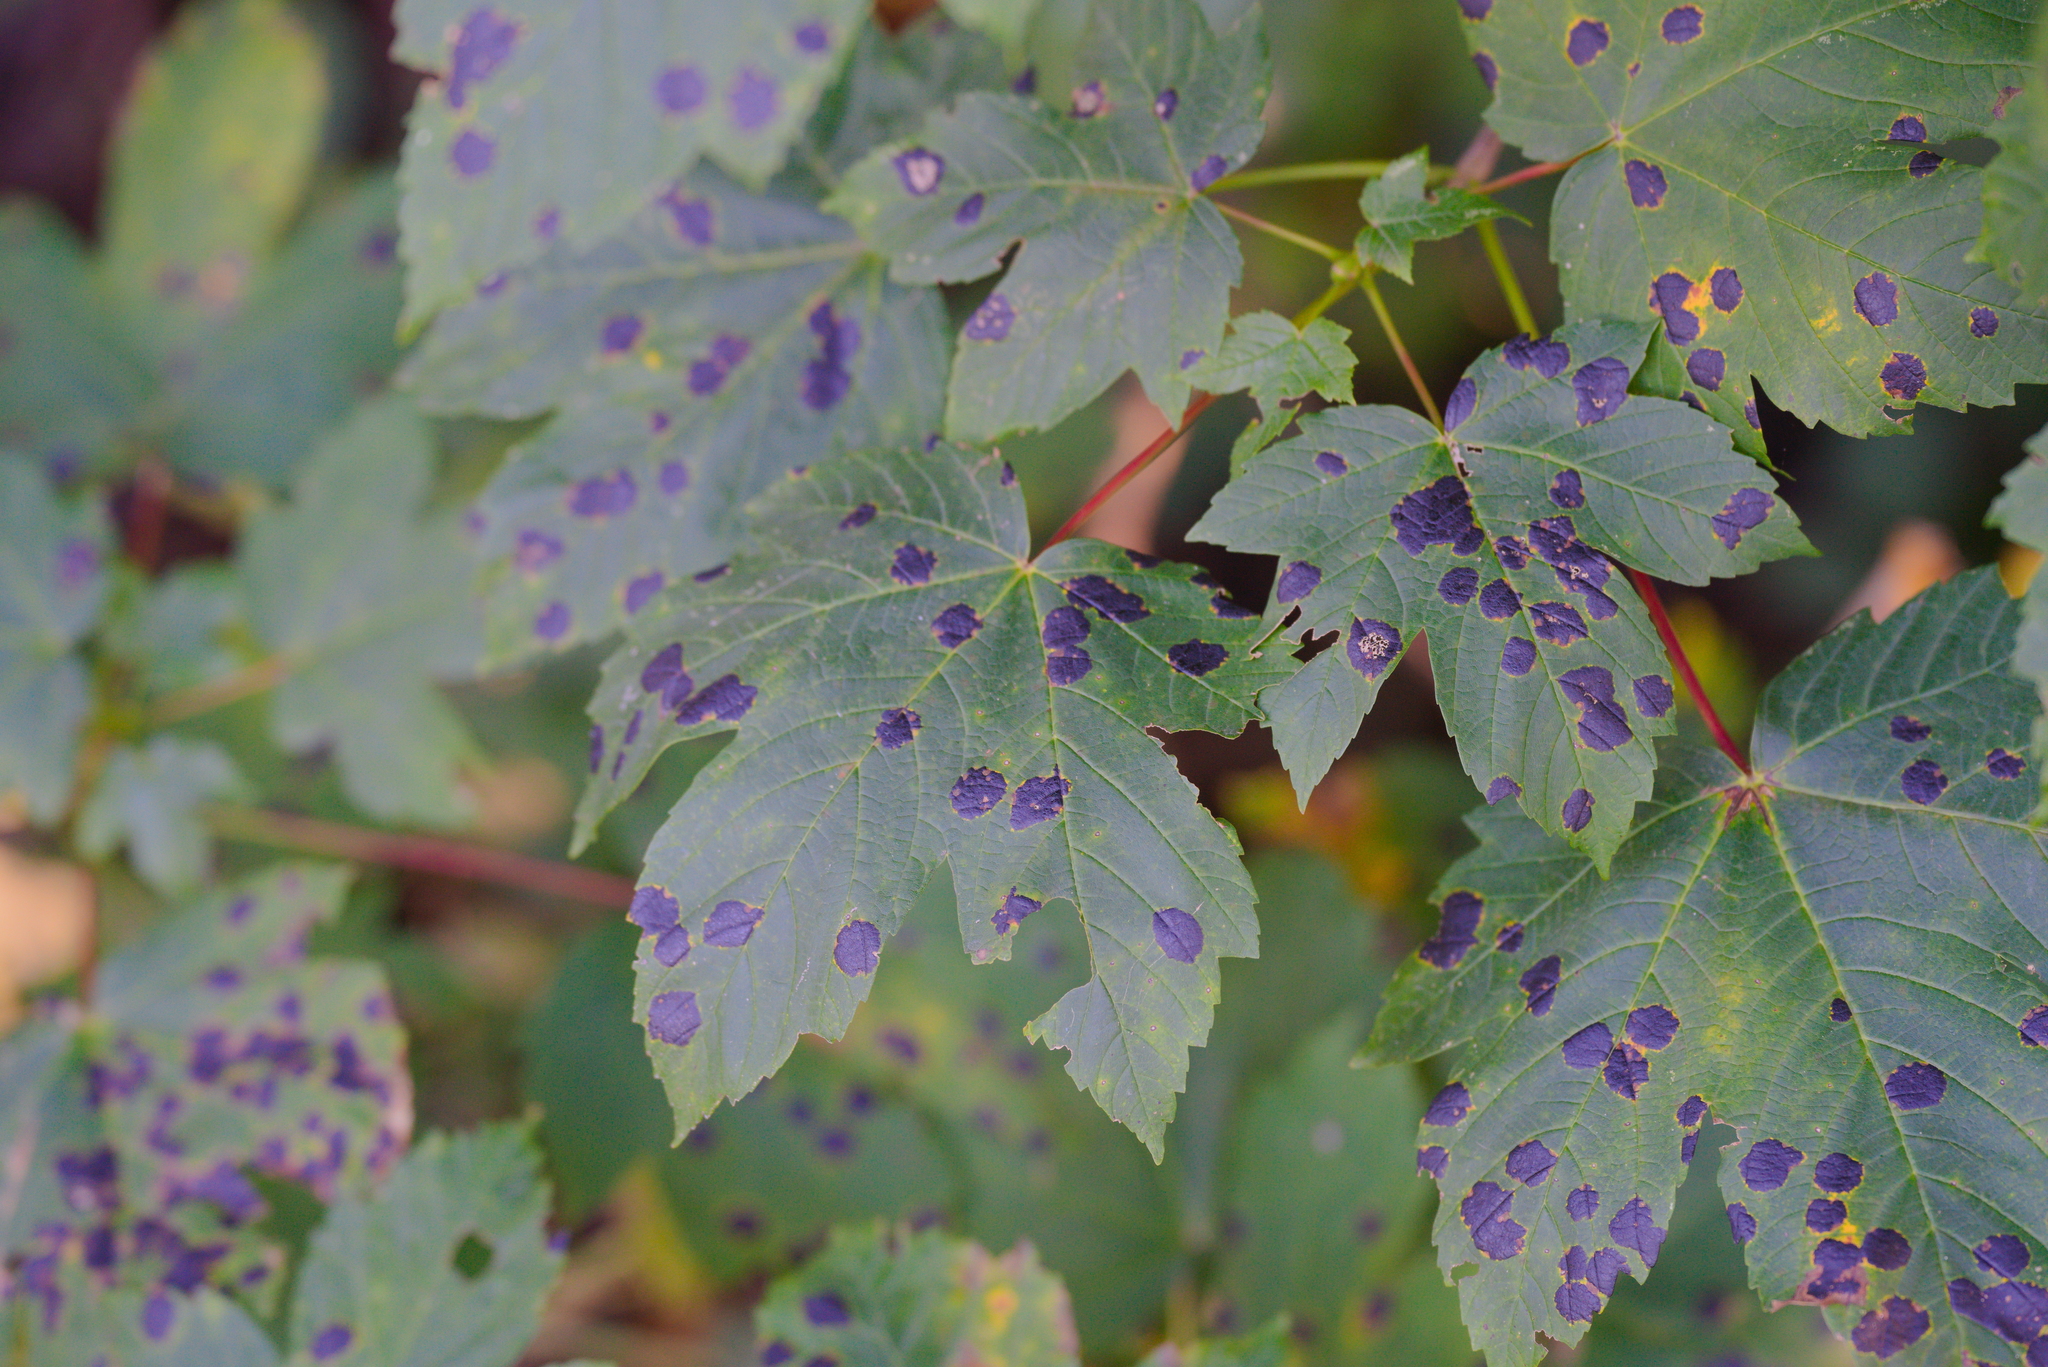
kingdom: Plantae
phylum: Tracheophyta
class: Magnoliopsida
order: Sapindales
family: Sapindaceae
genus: Acer
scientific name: Acer pseudoplatanus
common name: Sycamore
